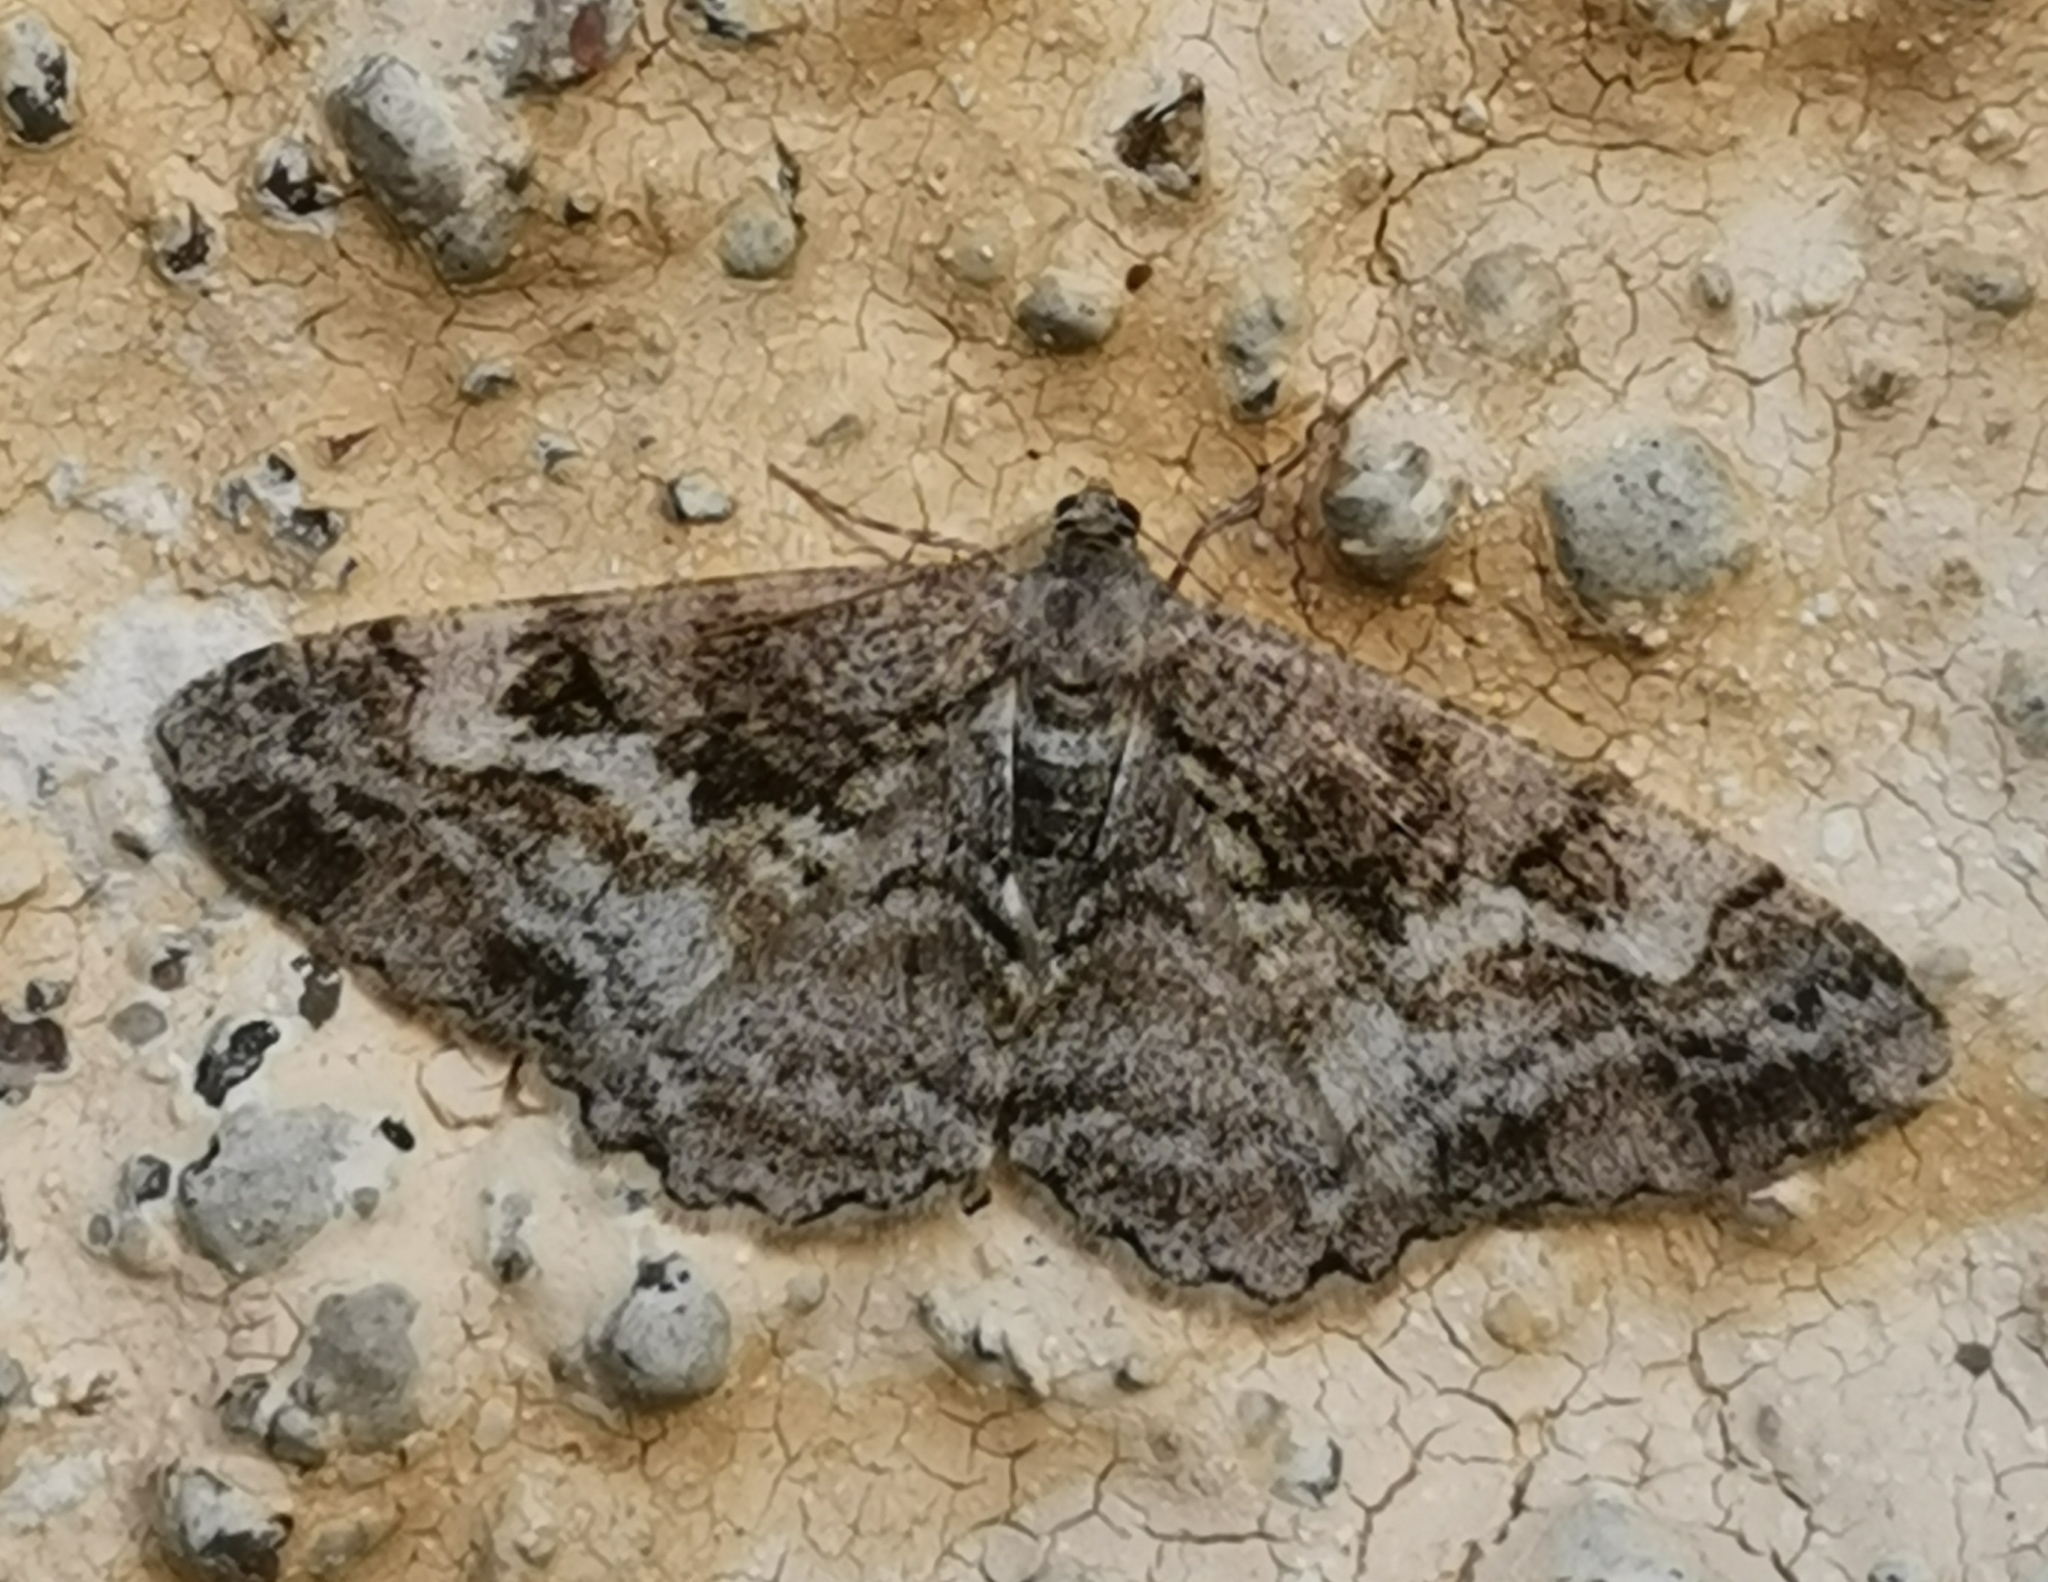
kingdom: Animalia
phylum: Arthropoda
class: Insecta
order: Lepidoptera
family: Geometridae
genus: Alcis
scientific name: Alcis repandata
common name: Mottled beauty
